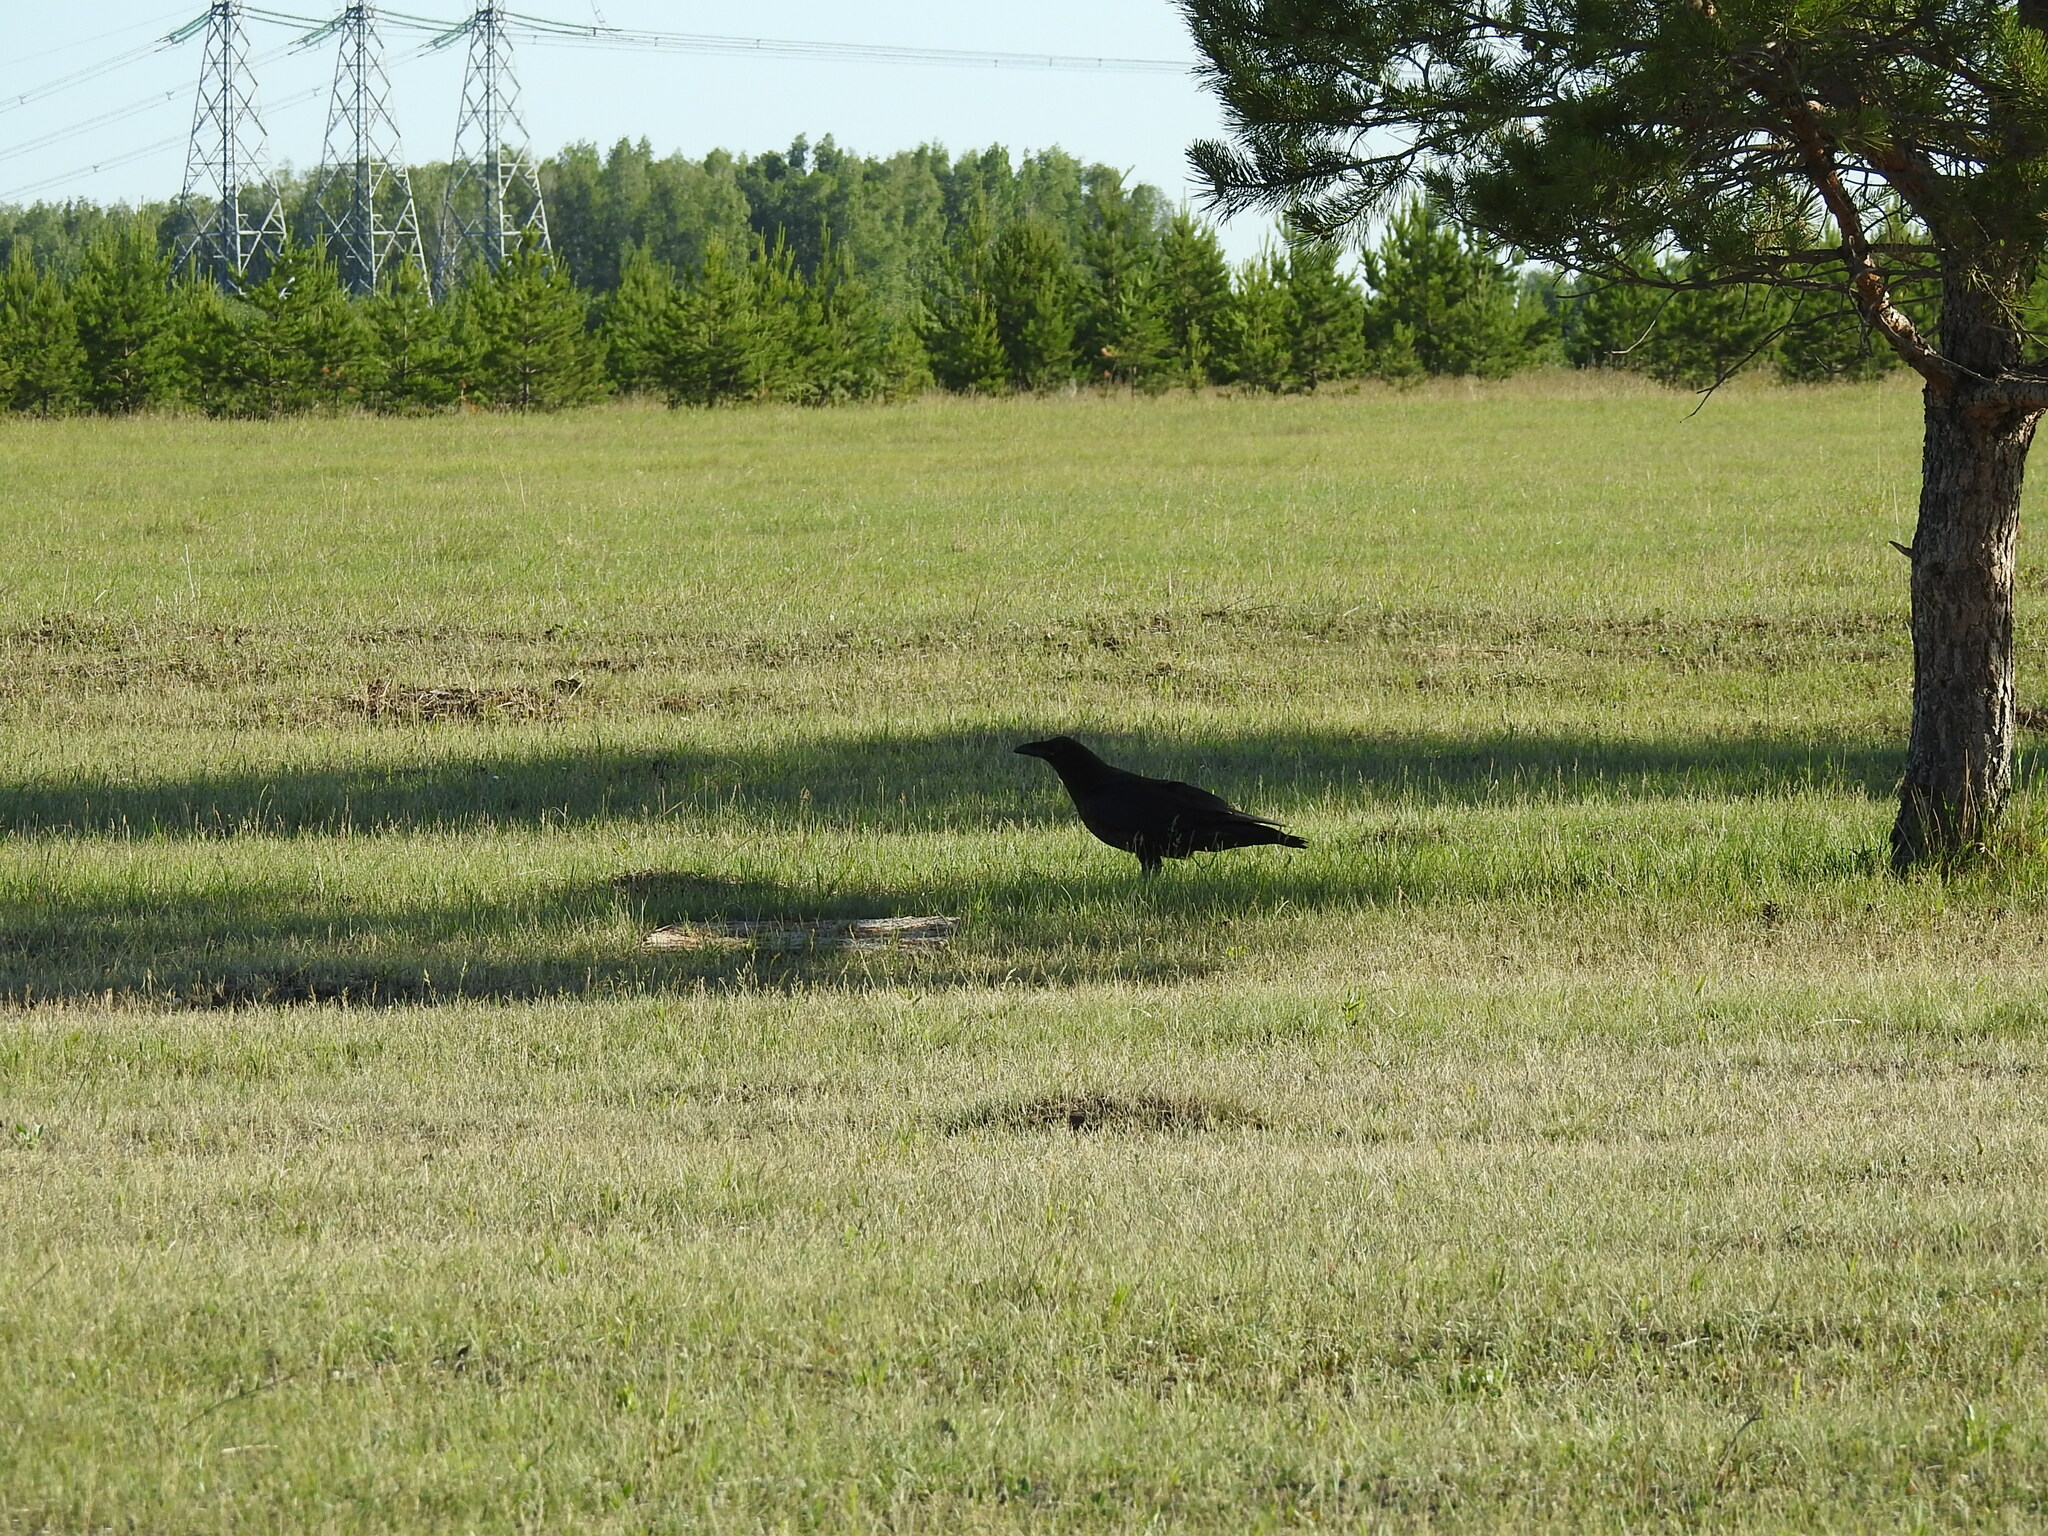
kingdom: Animalia
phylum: Chordata
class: Aves
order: Passeriformes
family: Corvidae
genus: Corvus
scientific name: Corvus corax
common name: Common raven
